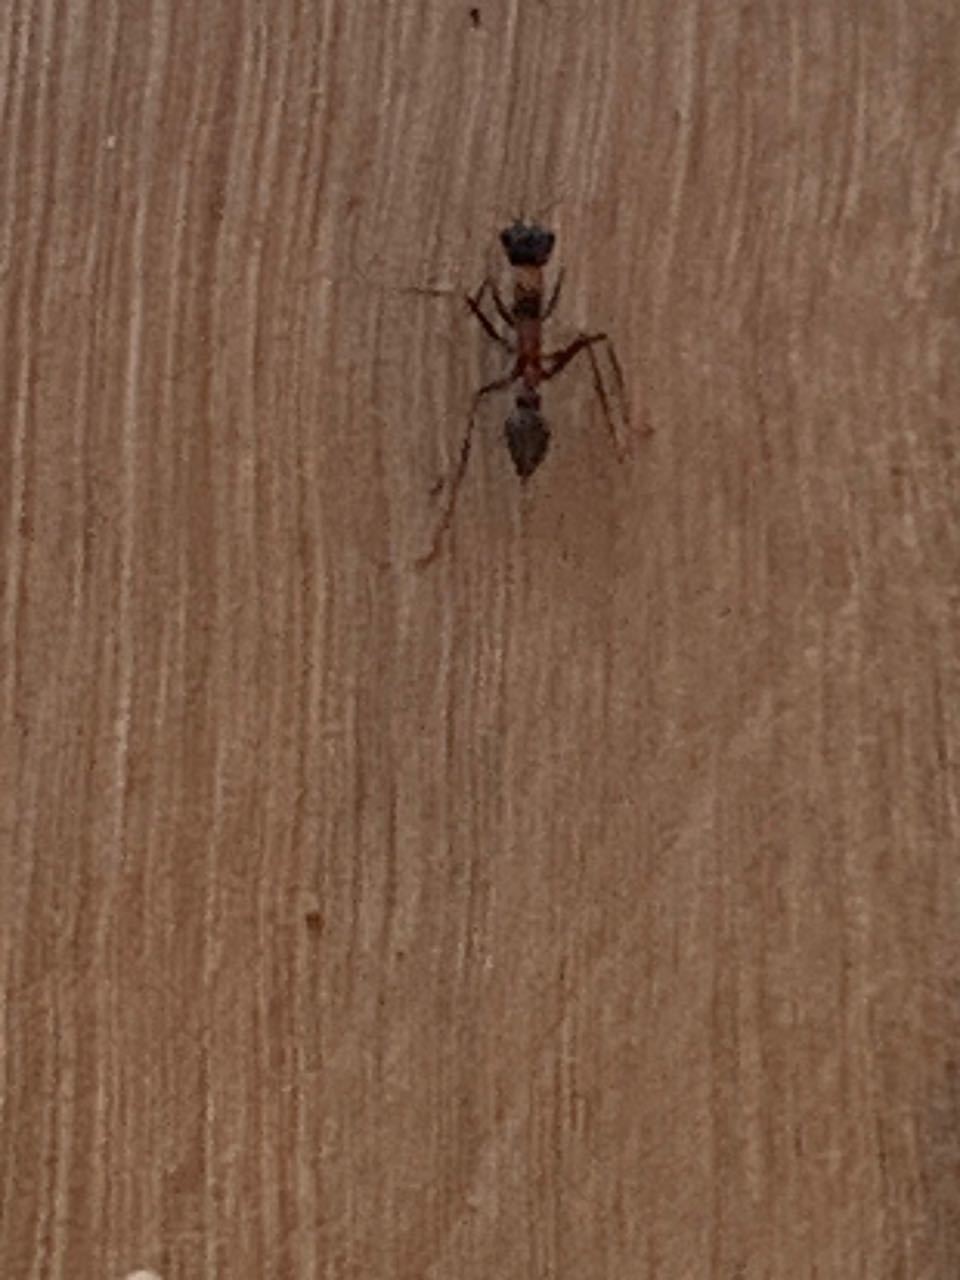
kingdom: Animalia
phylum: Arthropoda
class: Insecta
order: Hymenoptera
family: Formicidae
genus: Myrmecia
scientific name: Myrmecia nigrocincta
